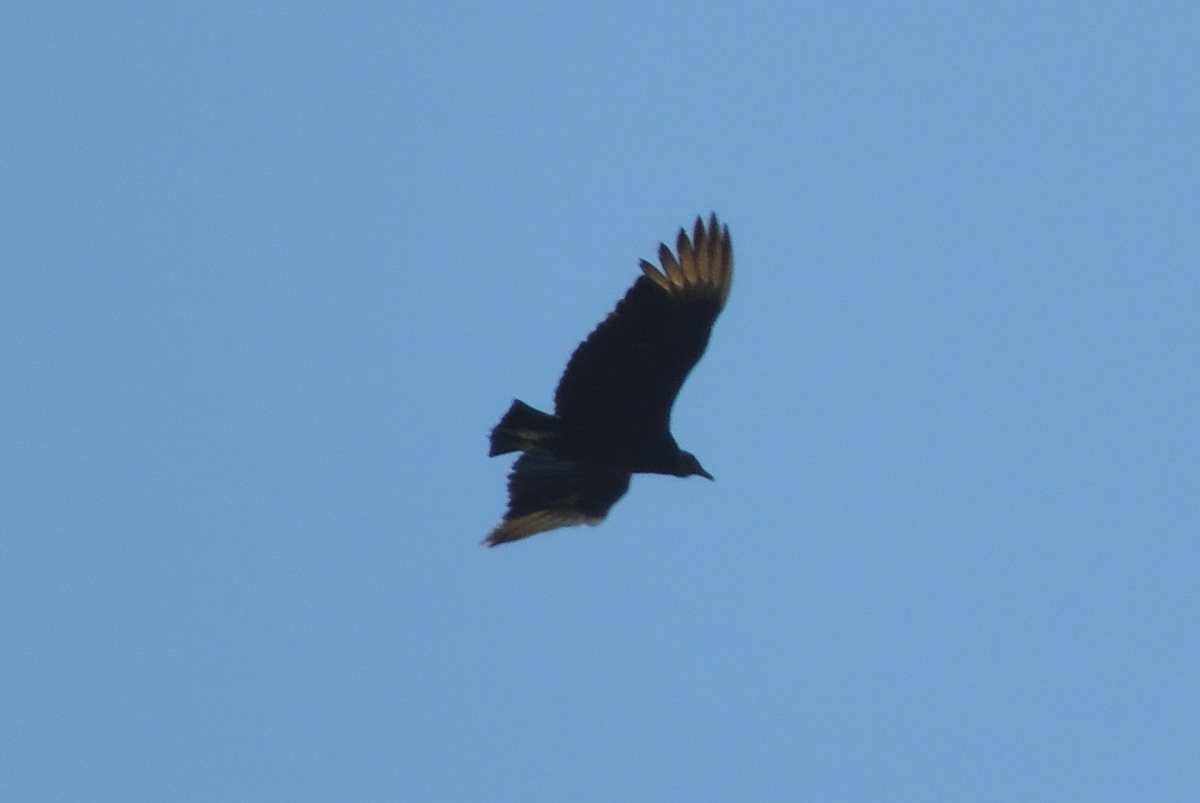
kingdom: Animalia
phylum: Chordata
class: Aves
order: Accipitriformes
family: Cathartidae
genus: Coragyps
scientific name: Coragyps atratus
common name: Black vulture
